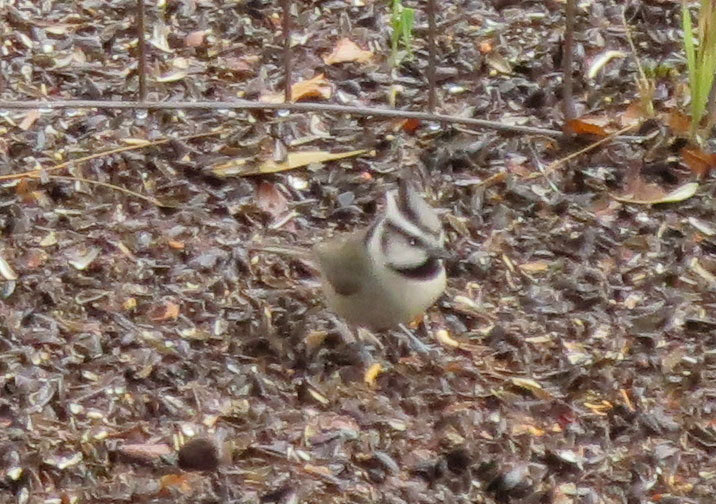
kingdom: Animalia
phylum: Chordata
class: Aves
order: Passeriformes
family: Paridae
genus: Baeolophus
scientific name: Baeolophus wollweberi
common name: Bridled titmouse
